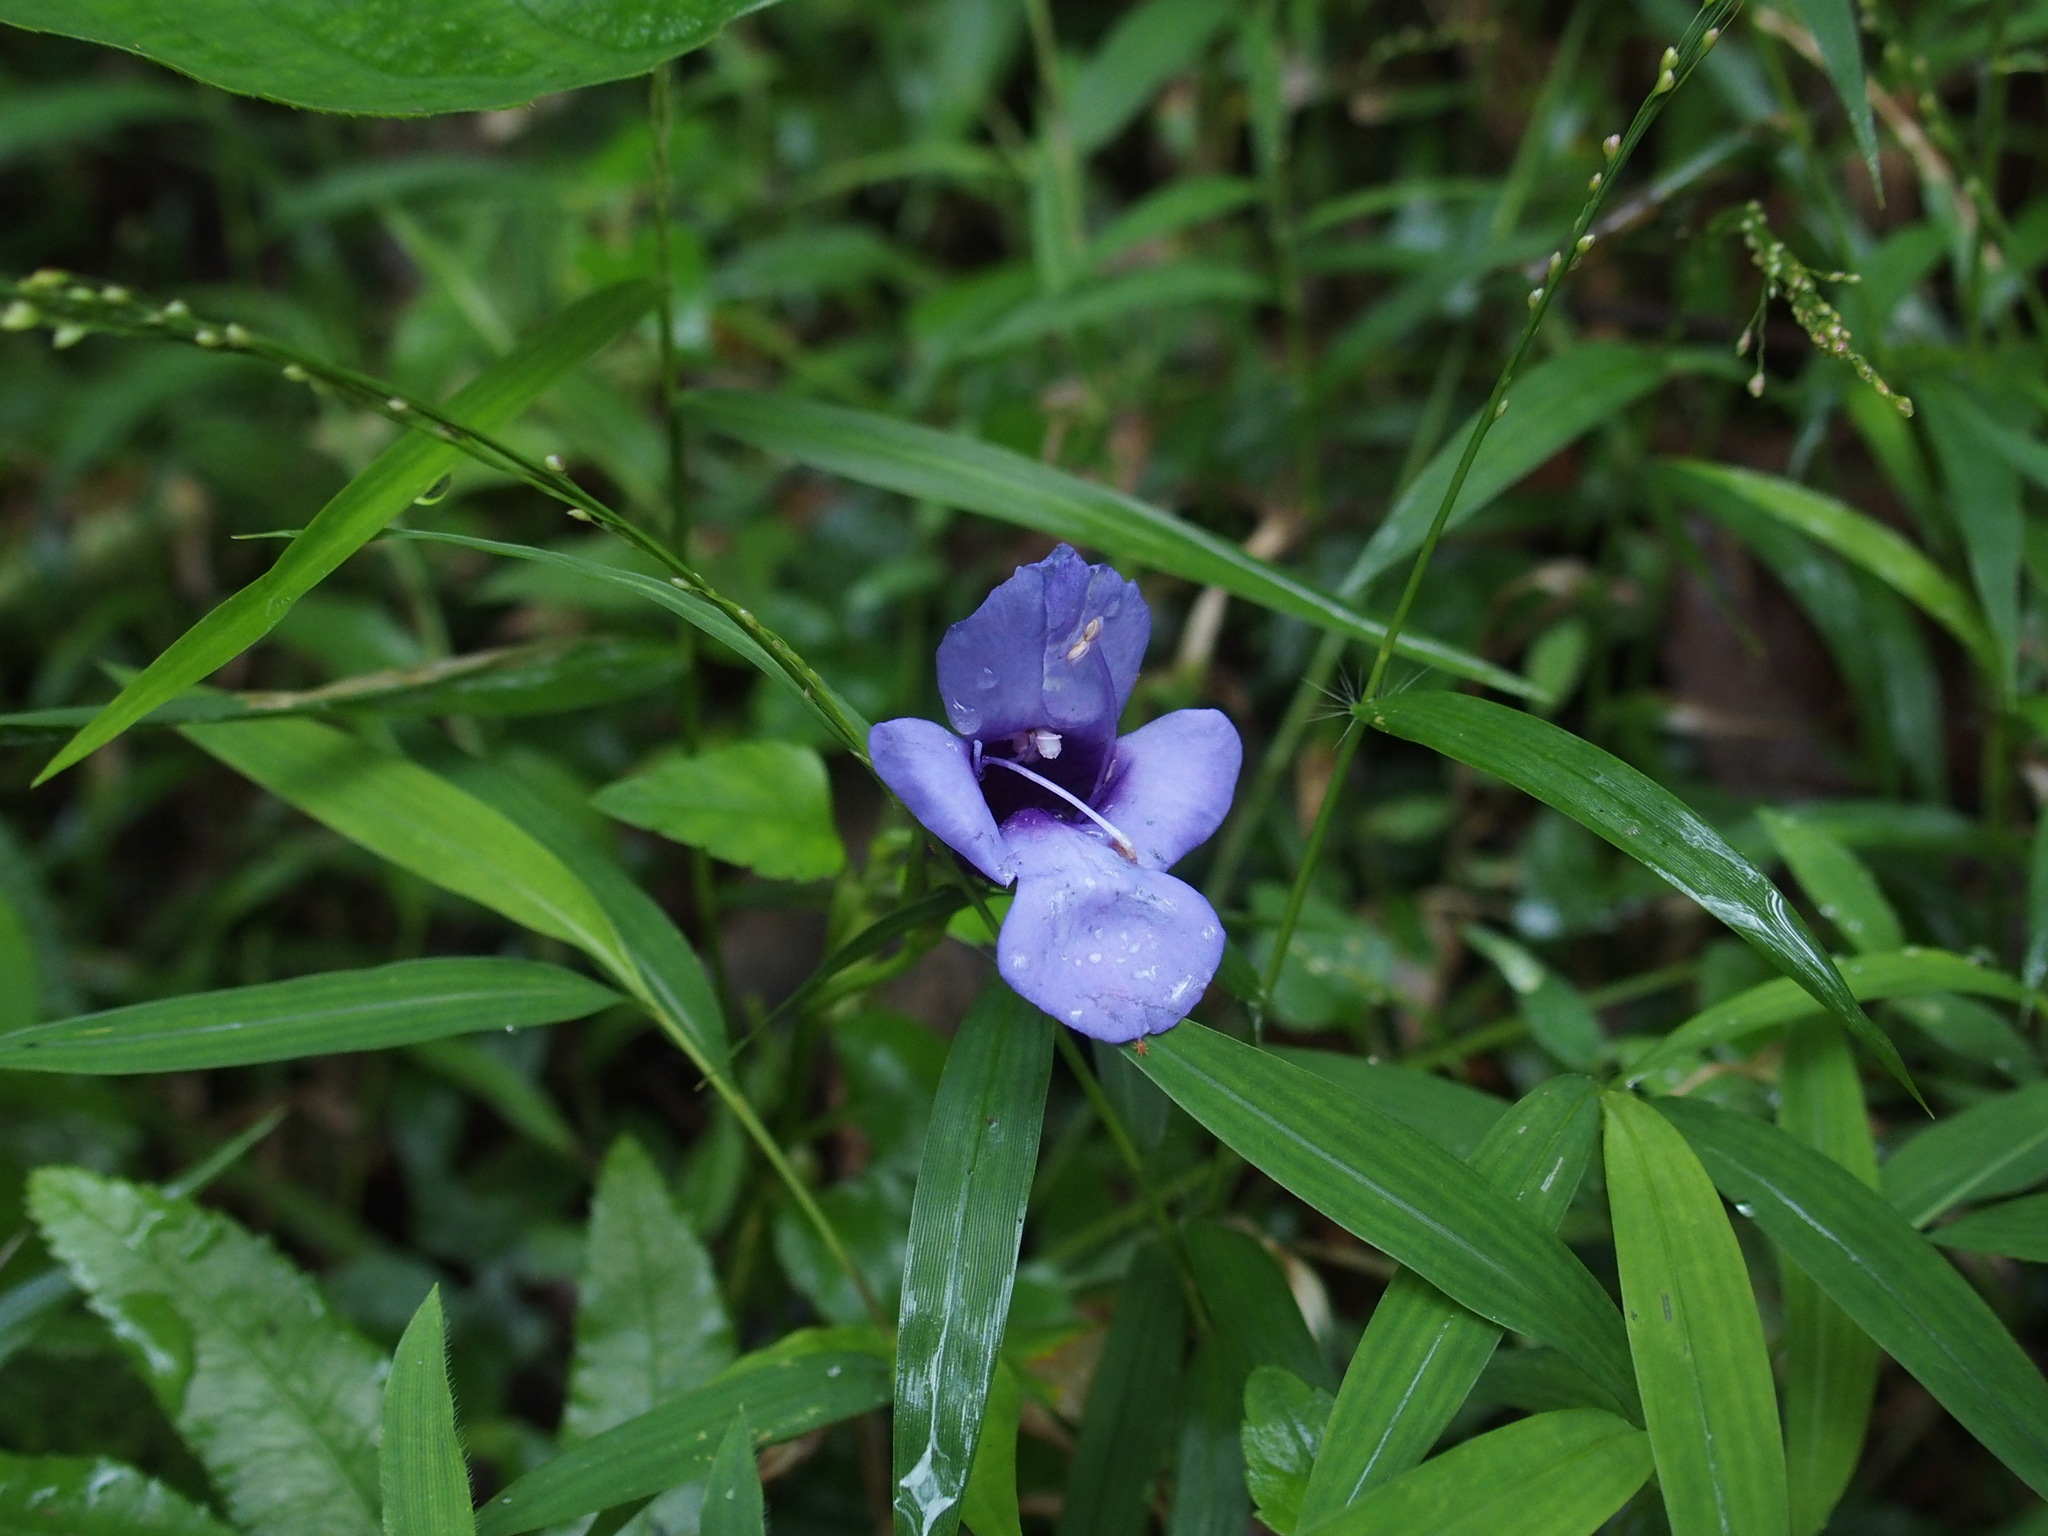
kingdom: Plantae
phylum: Tracheophyta
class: Magnoliopsida
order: Lamiales
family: Linderniaceae
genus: Torenia
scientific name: Torenia concolor
